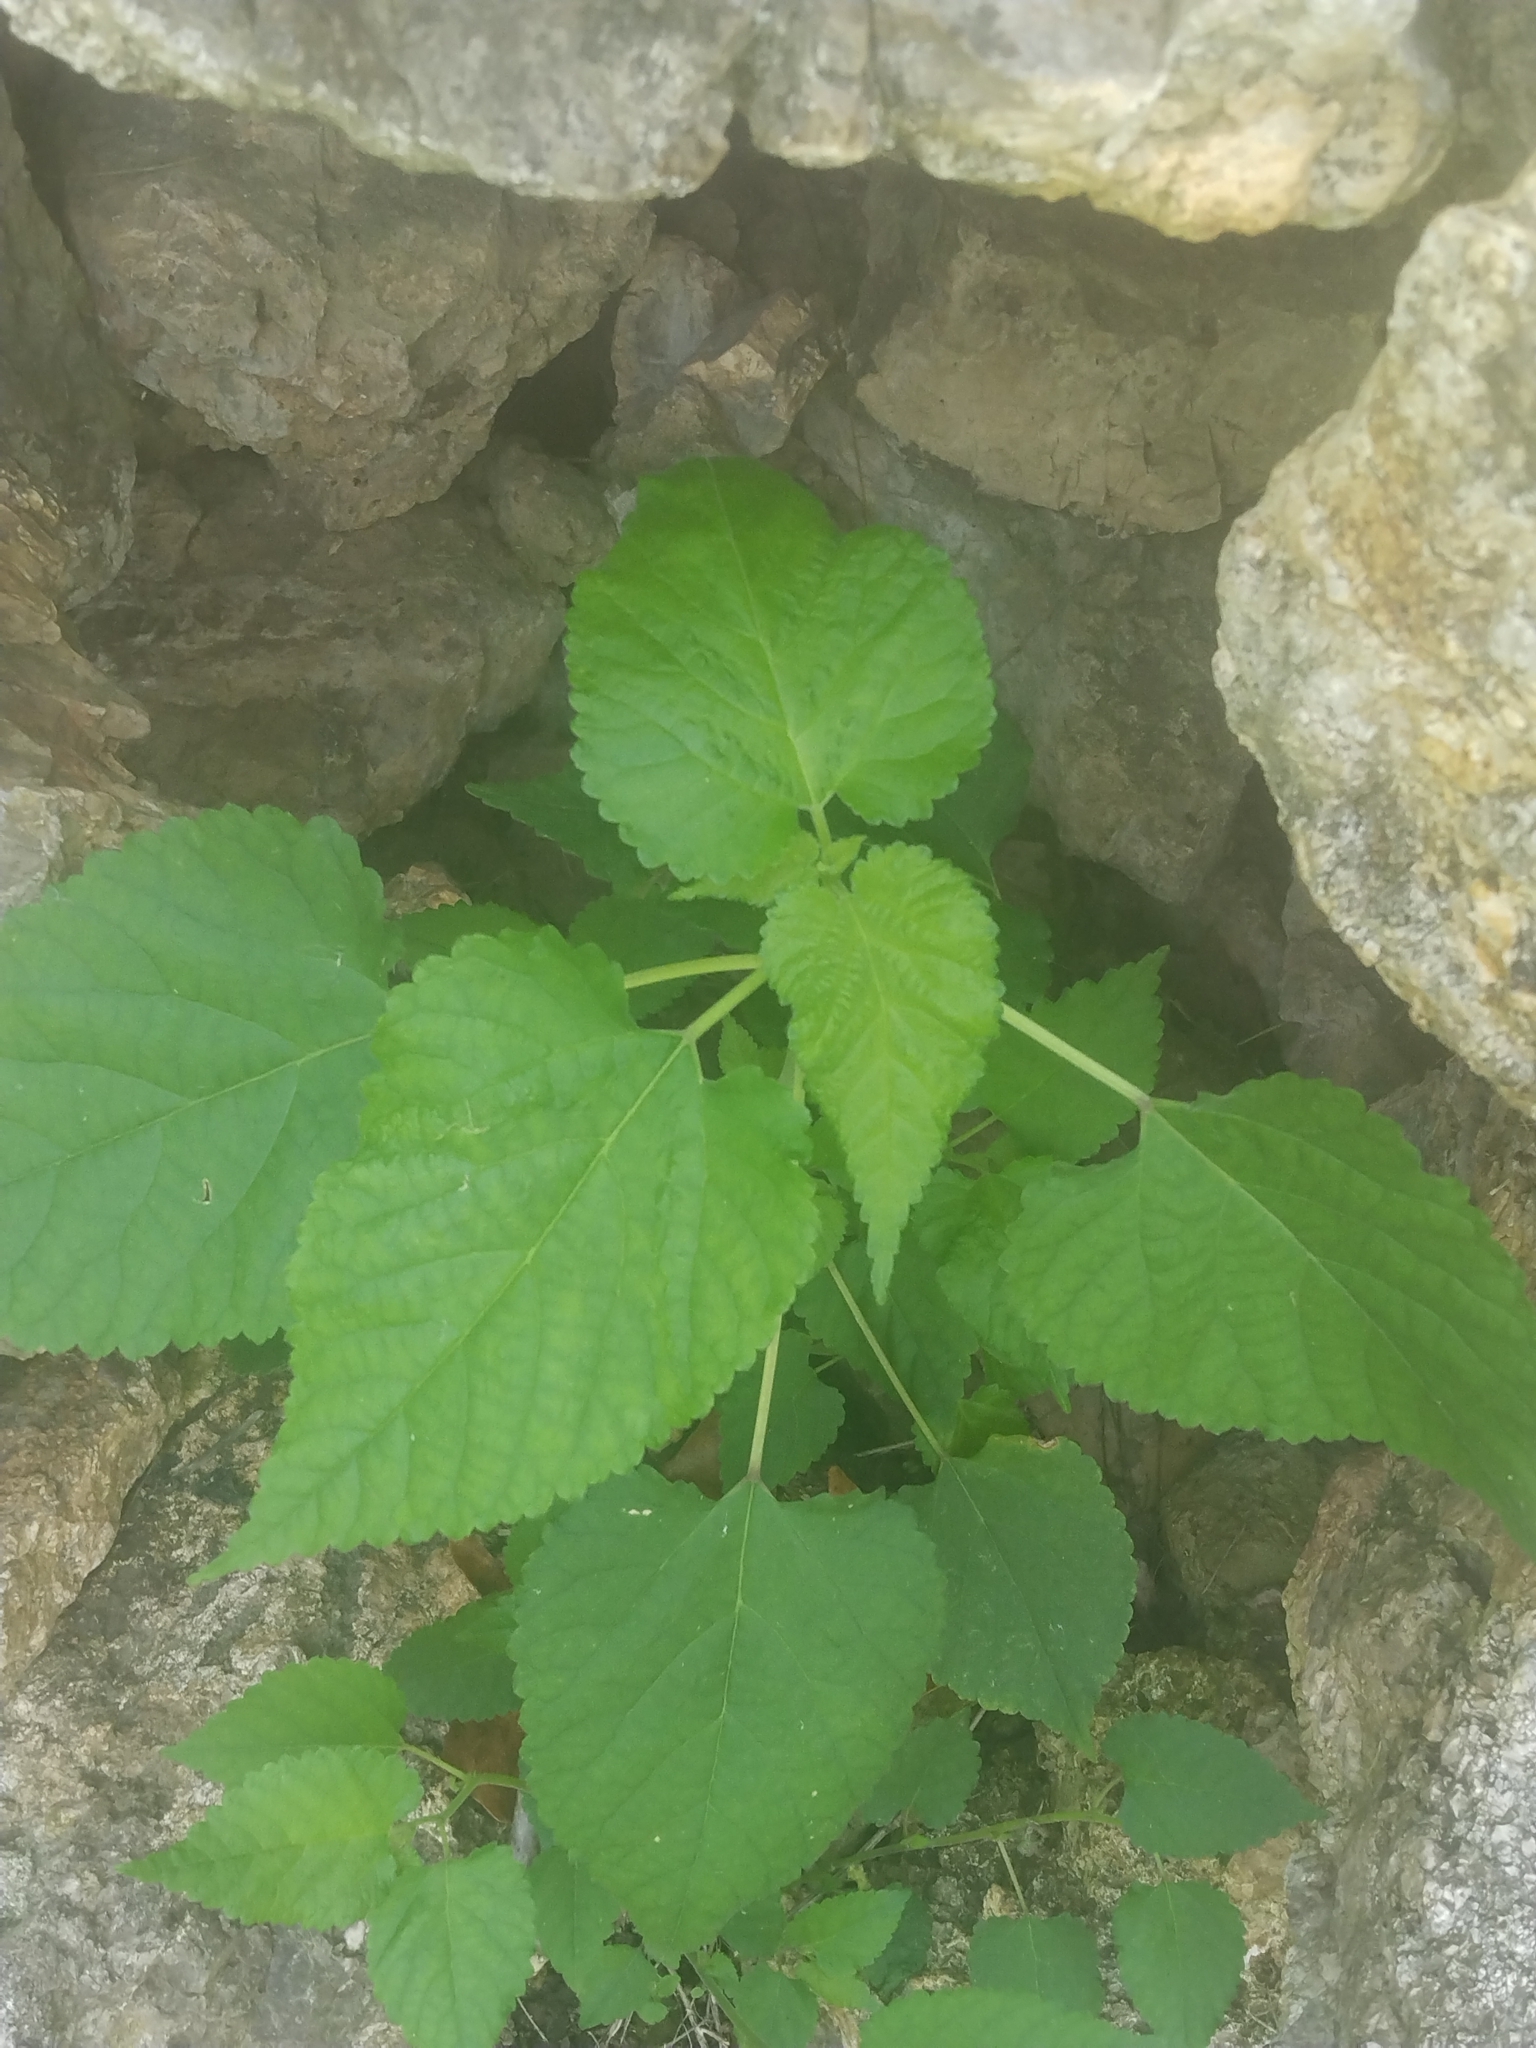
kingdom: Plantae
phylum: Tracheophyta
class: Magnoliopsida
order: Rosales
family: Moraceae
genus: Fatoua
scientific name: Fatoua villosa
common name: Hairy crabweed
